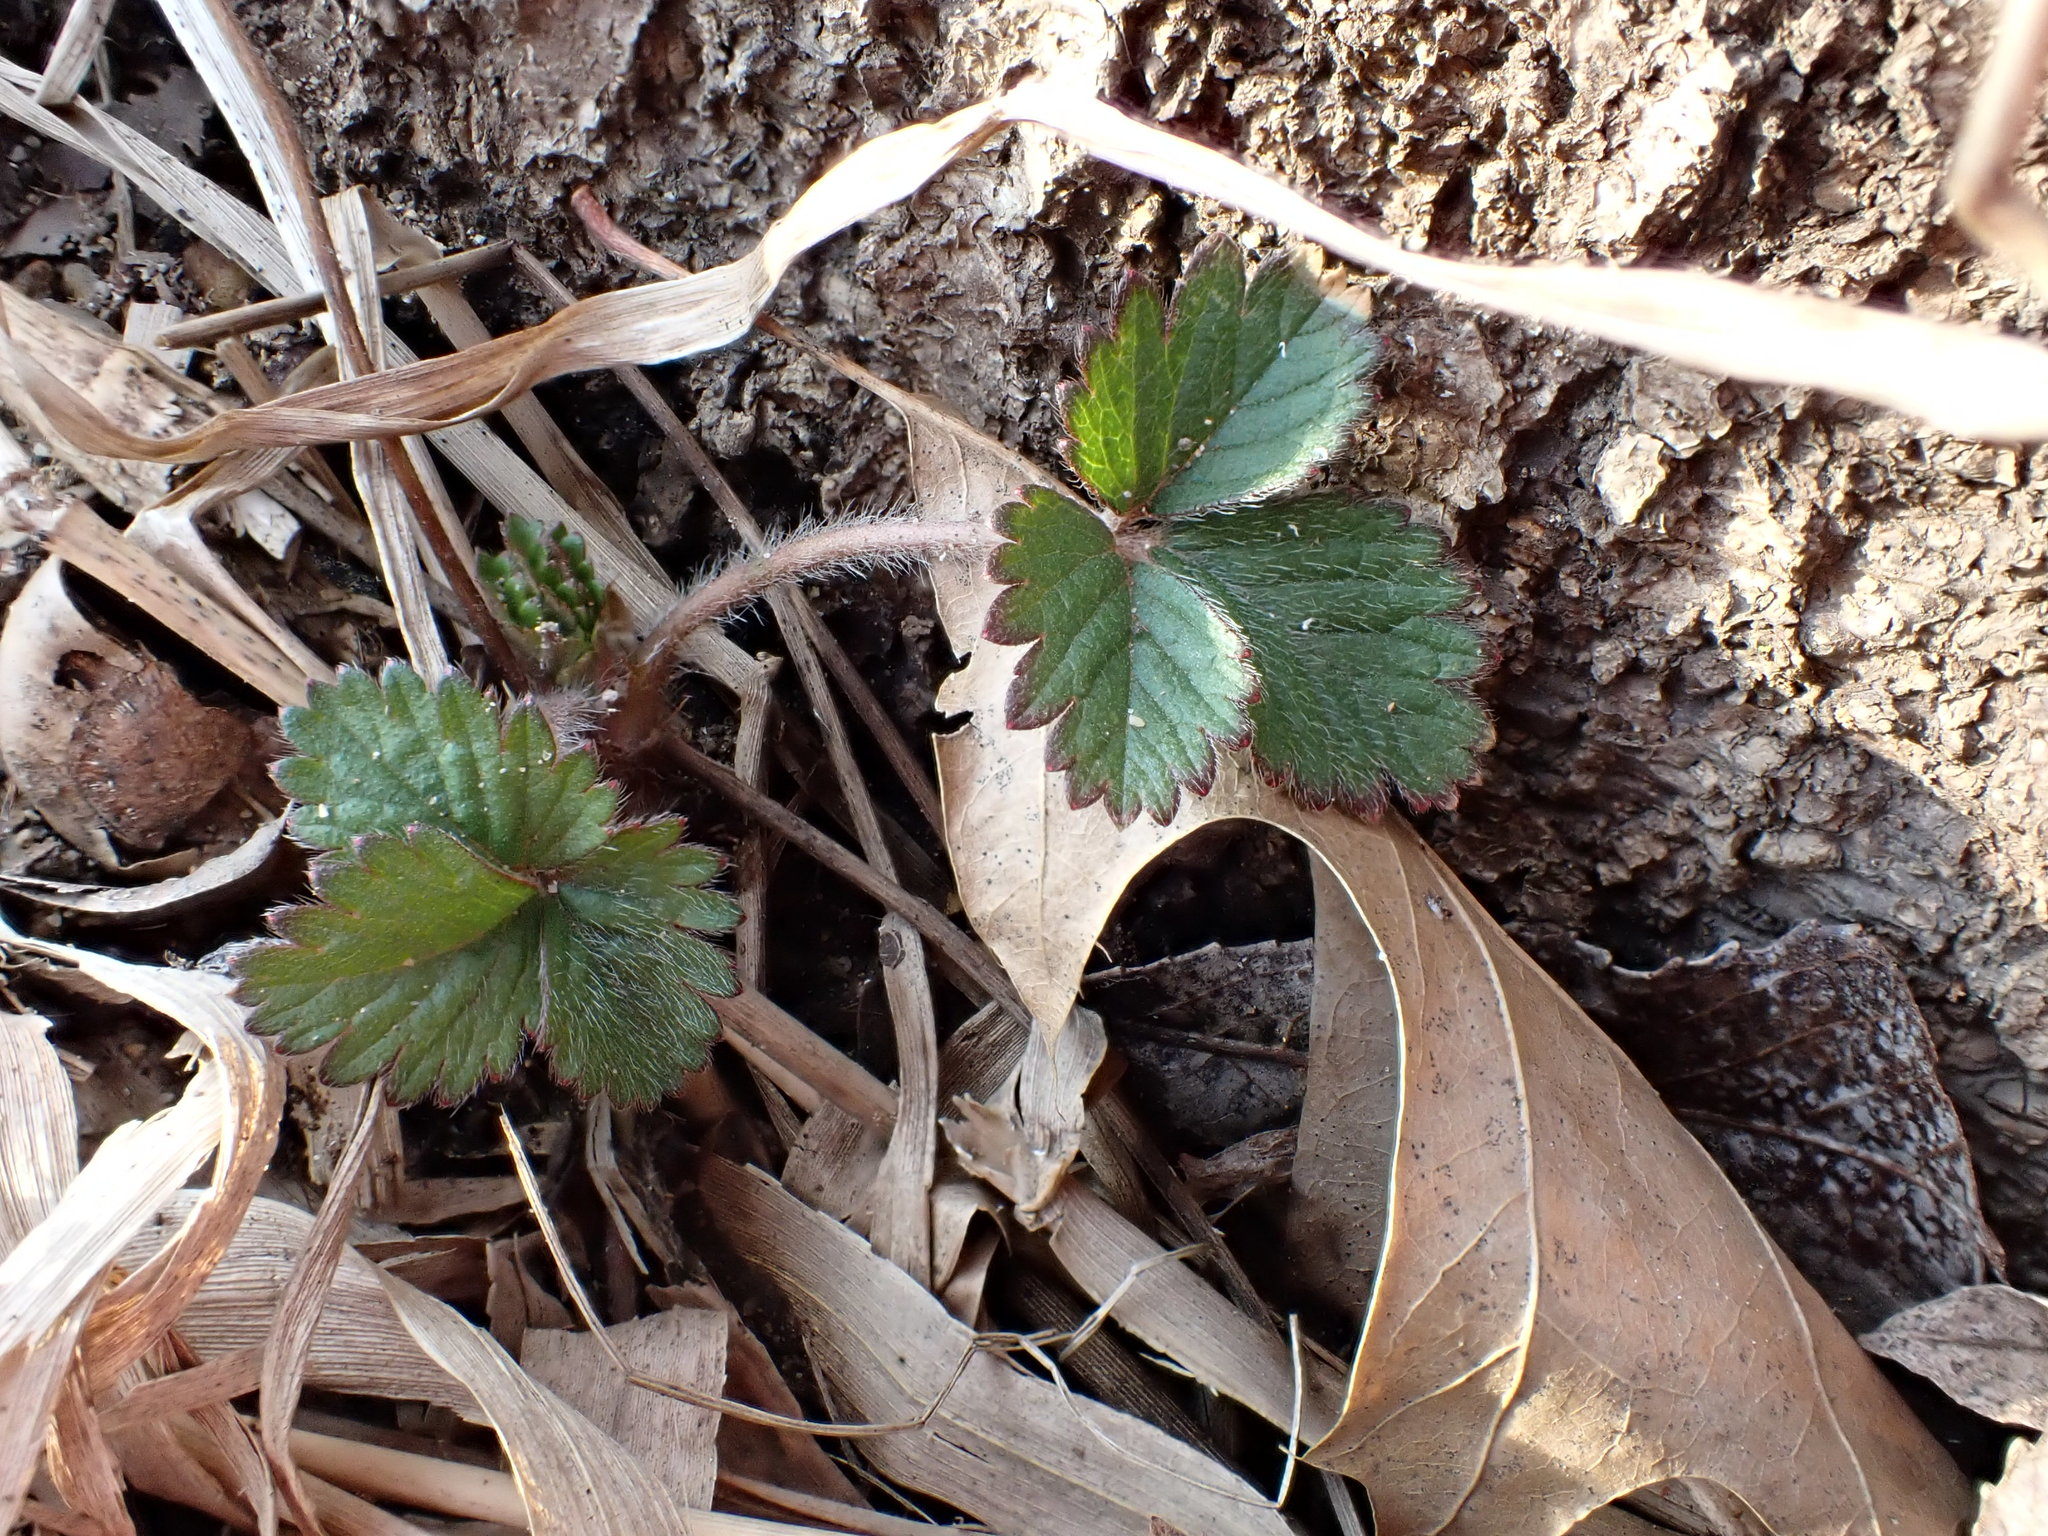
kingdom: Plantae
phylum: Tracheophyta
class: Magnoliopsida
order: Rosales
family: Rosaceae
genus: Potentilla
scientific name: Potentilla indica
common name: Yellow-flowered strawberry
